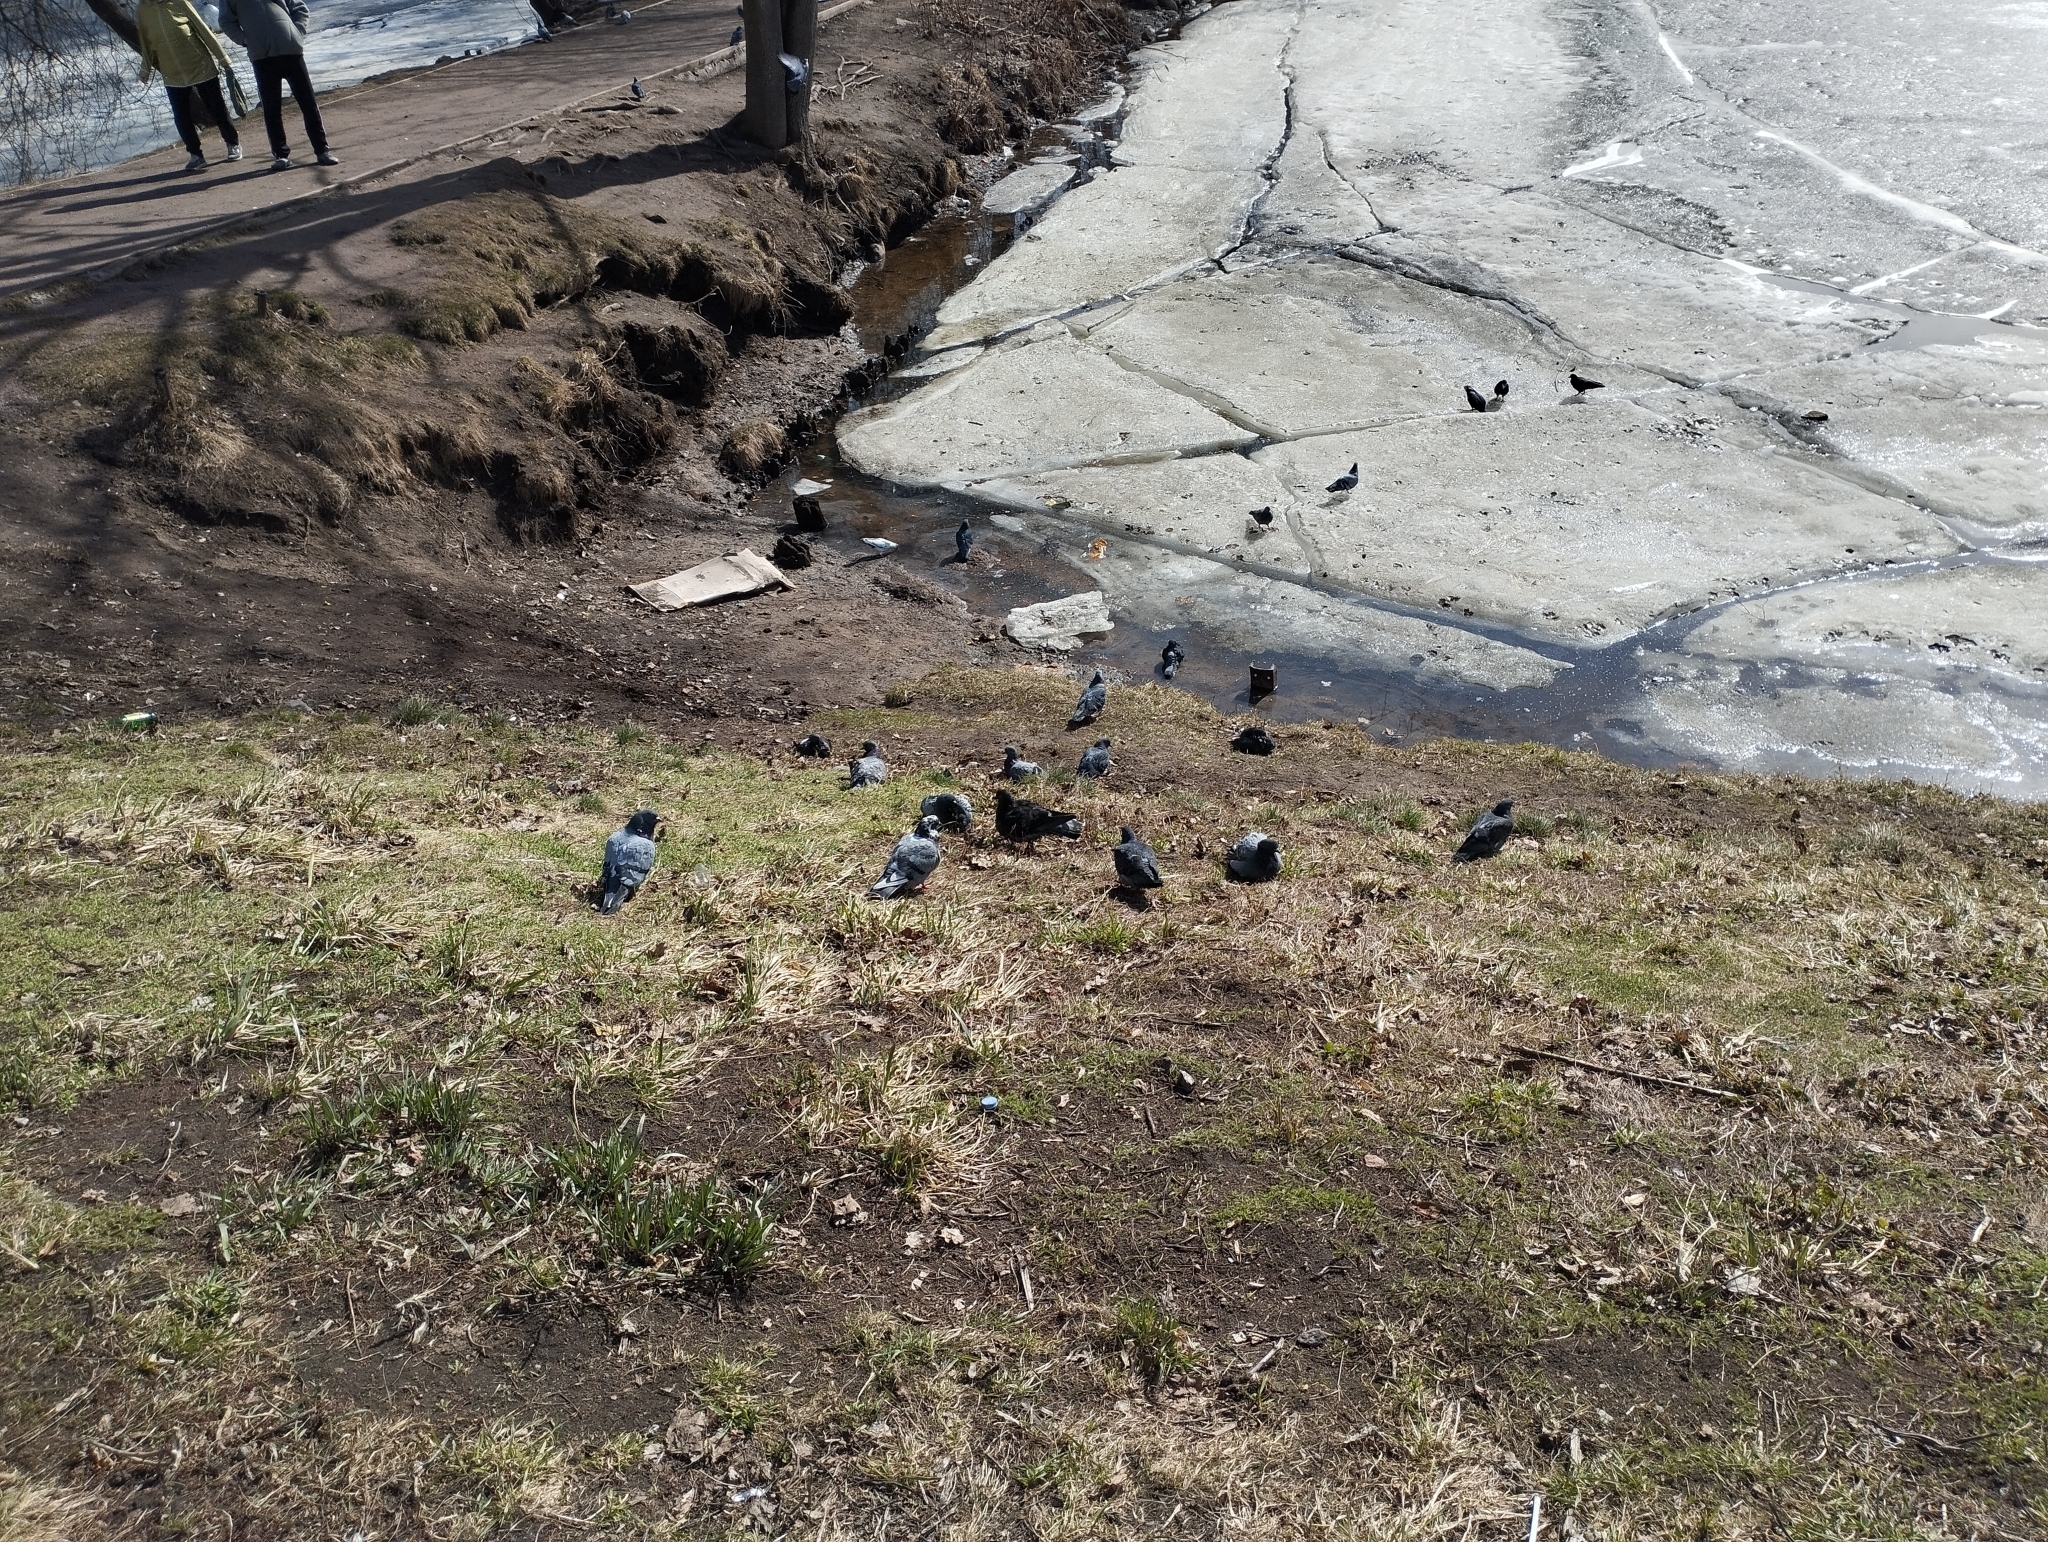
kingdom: Animalia
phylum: Chordata
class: Aves
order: Columbiformes
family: Columbidae
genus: Columba
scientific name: Columba livia
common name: Rock pigeon
